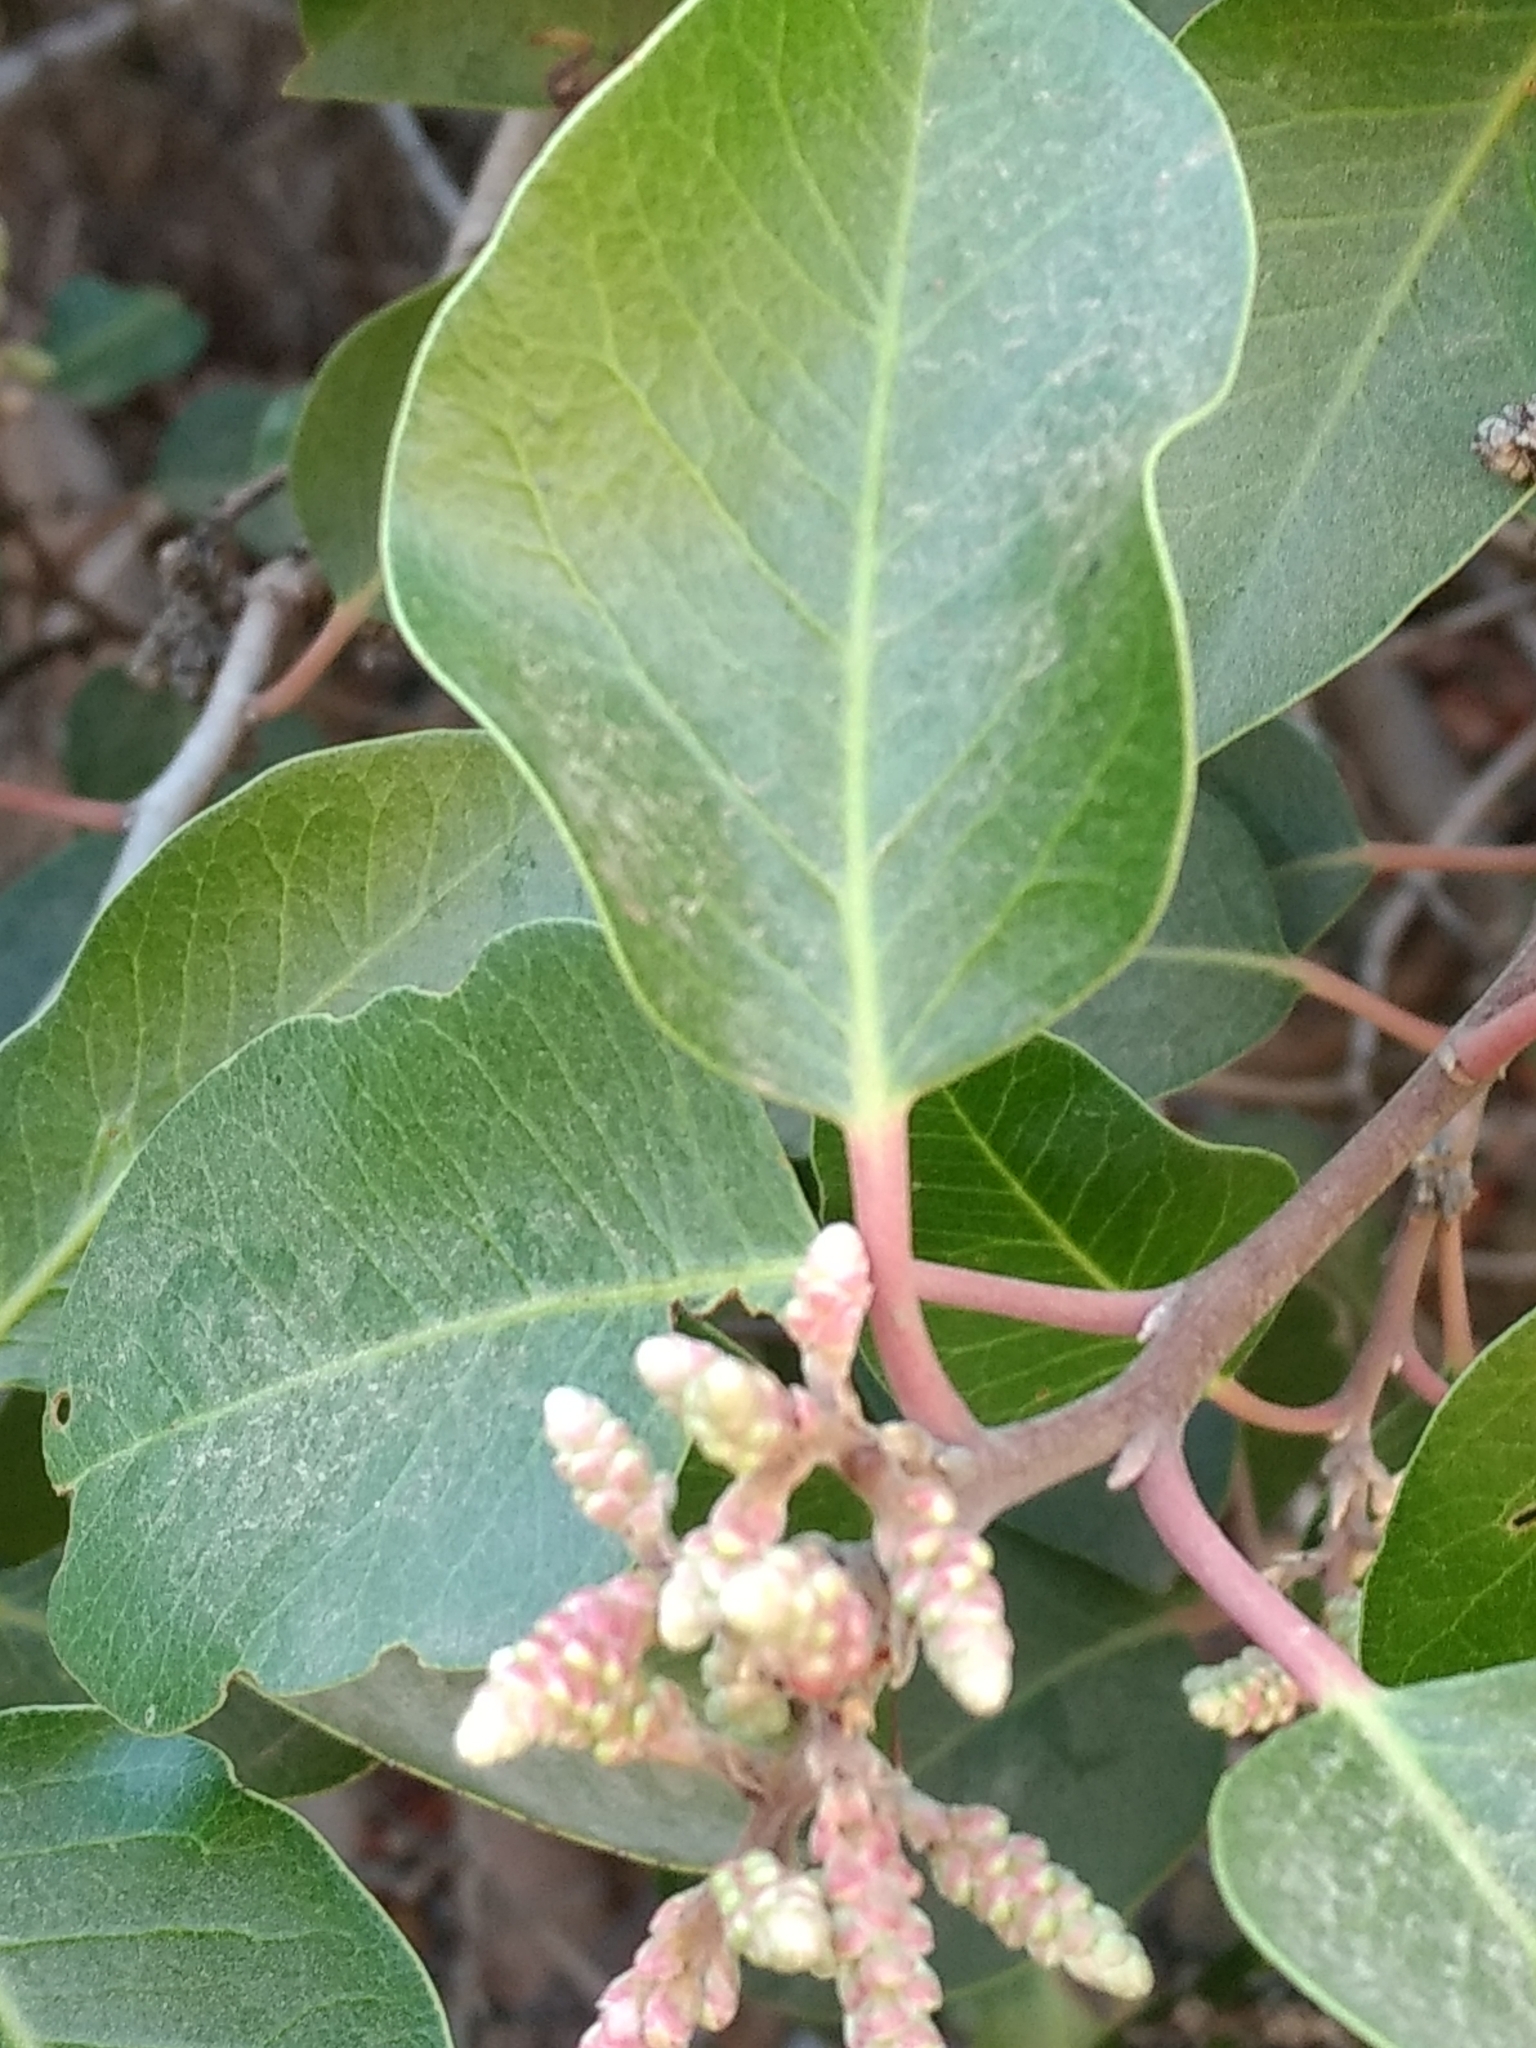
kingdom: Plantae
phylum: Tracheophyta
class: Magnoliopsida
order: Sapindales
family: Anacardiaceae
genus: Rhus
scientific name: Rhus ovata
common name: Sugar sumac
